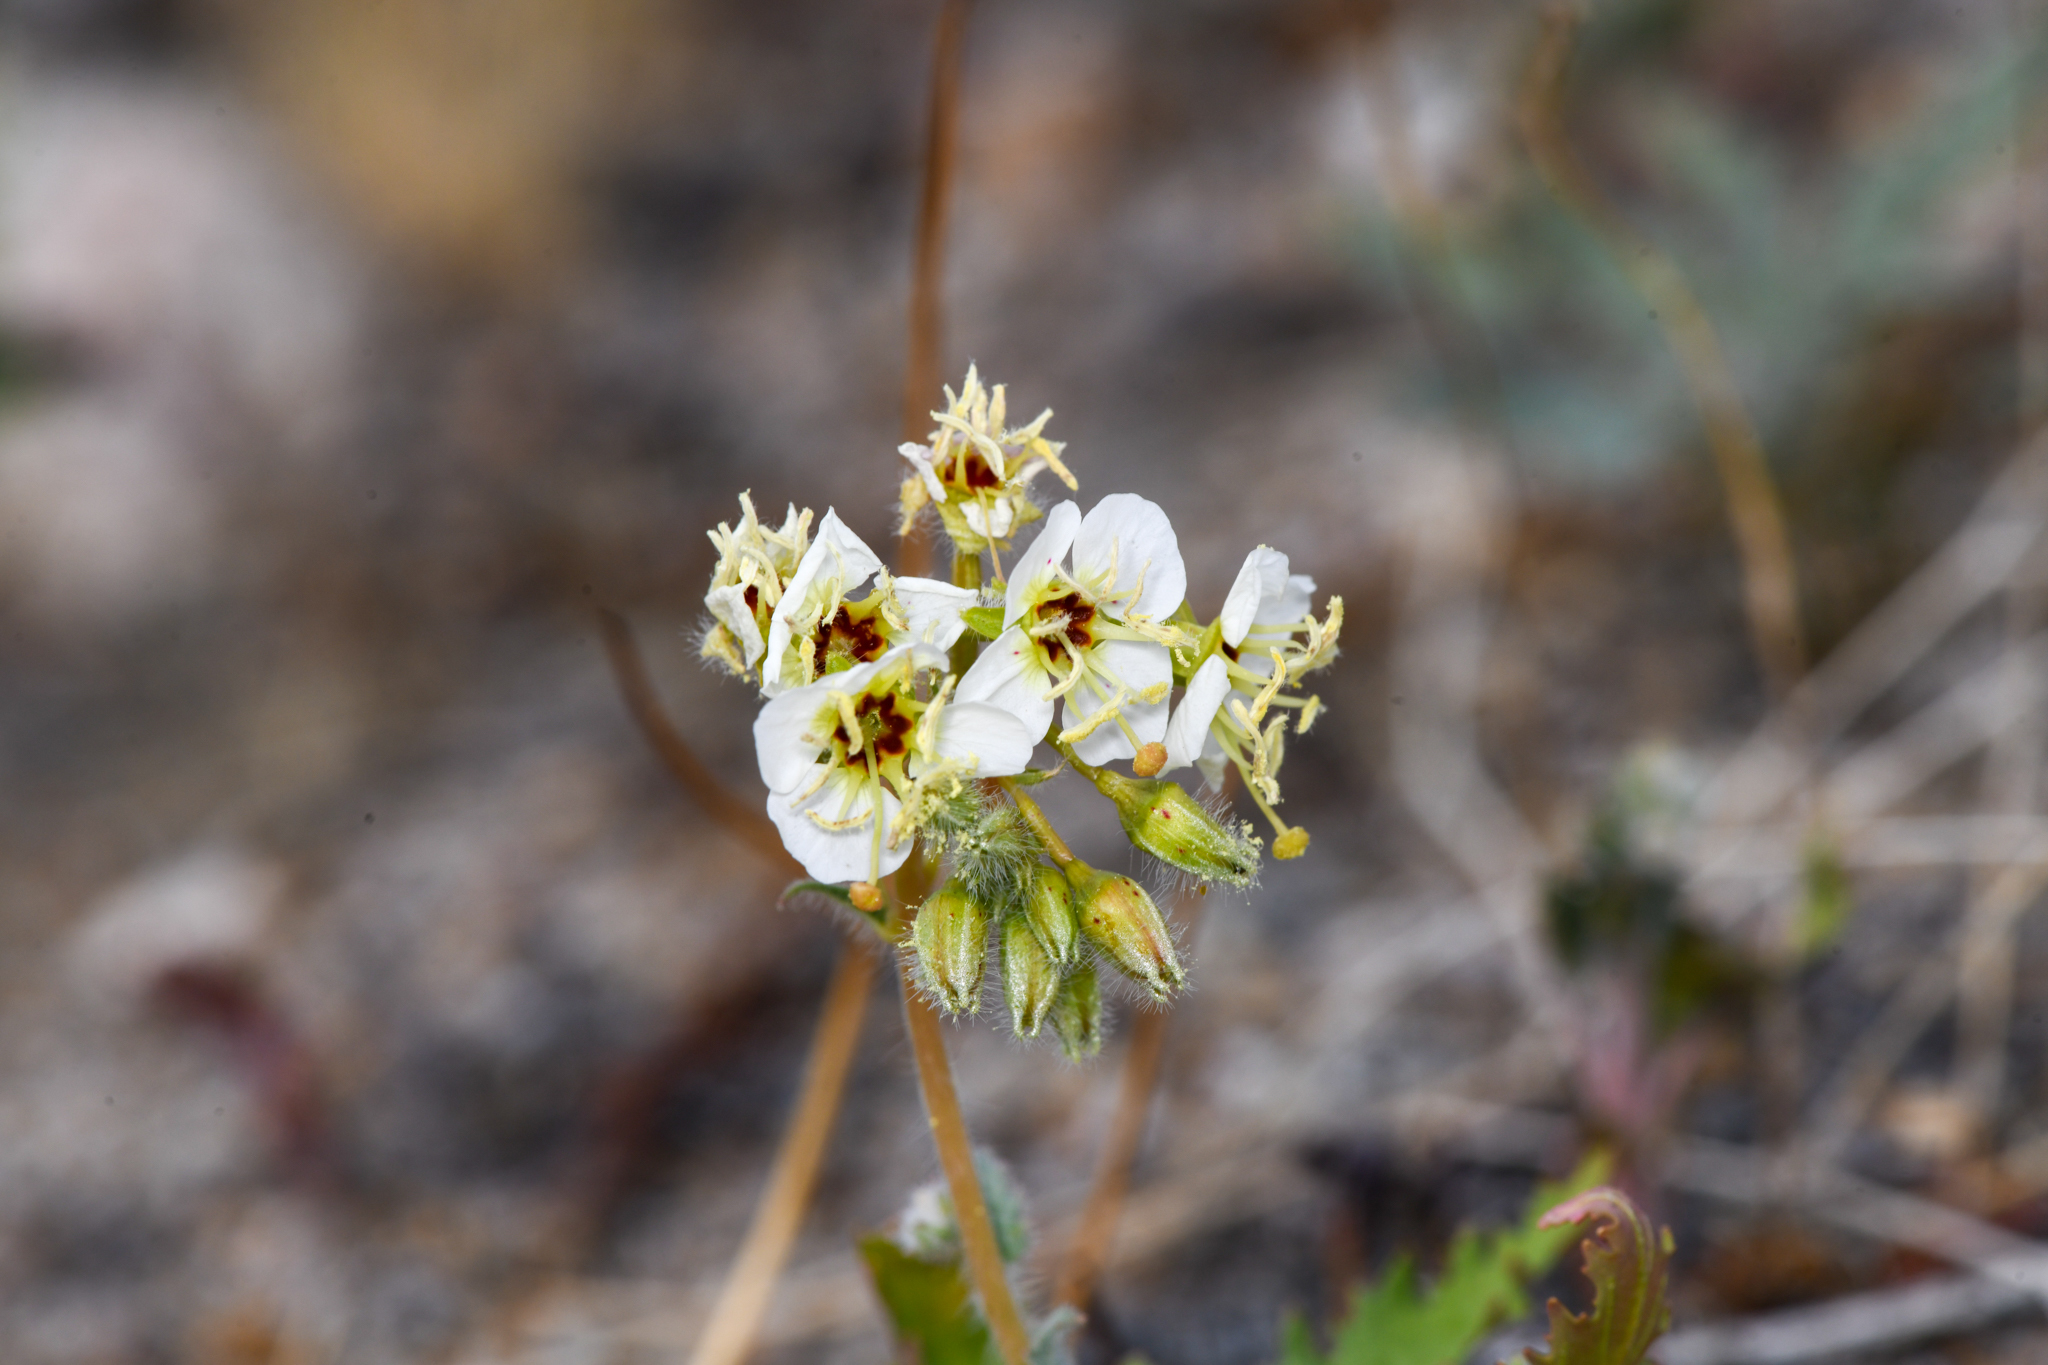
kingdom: Plantae
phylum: Tracheophyta
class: Magnoliopsida
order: Myrtales
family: Onagraceae
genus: Chylismia
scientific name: Chylismia claviformis
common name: Browneyes
